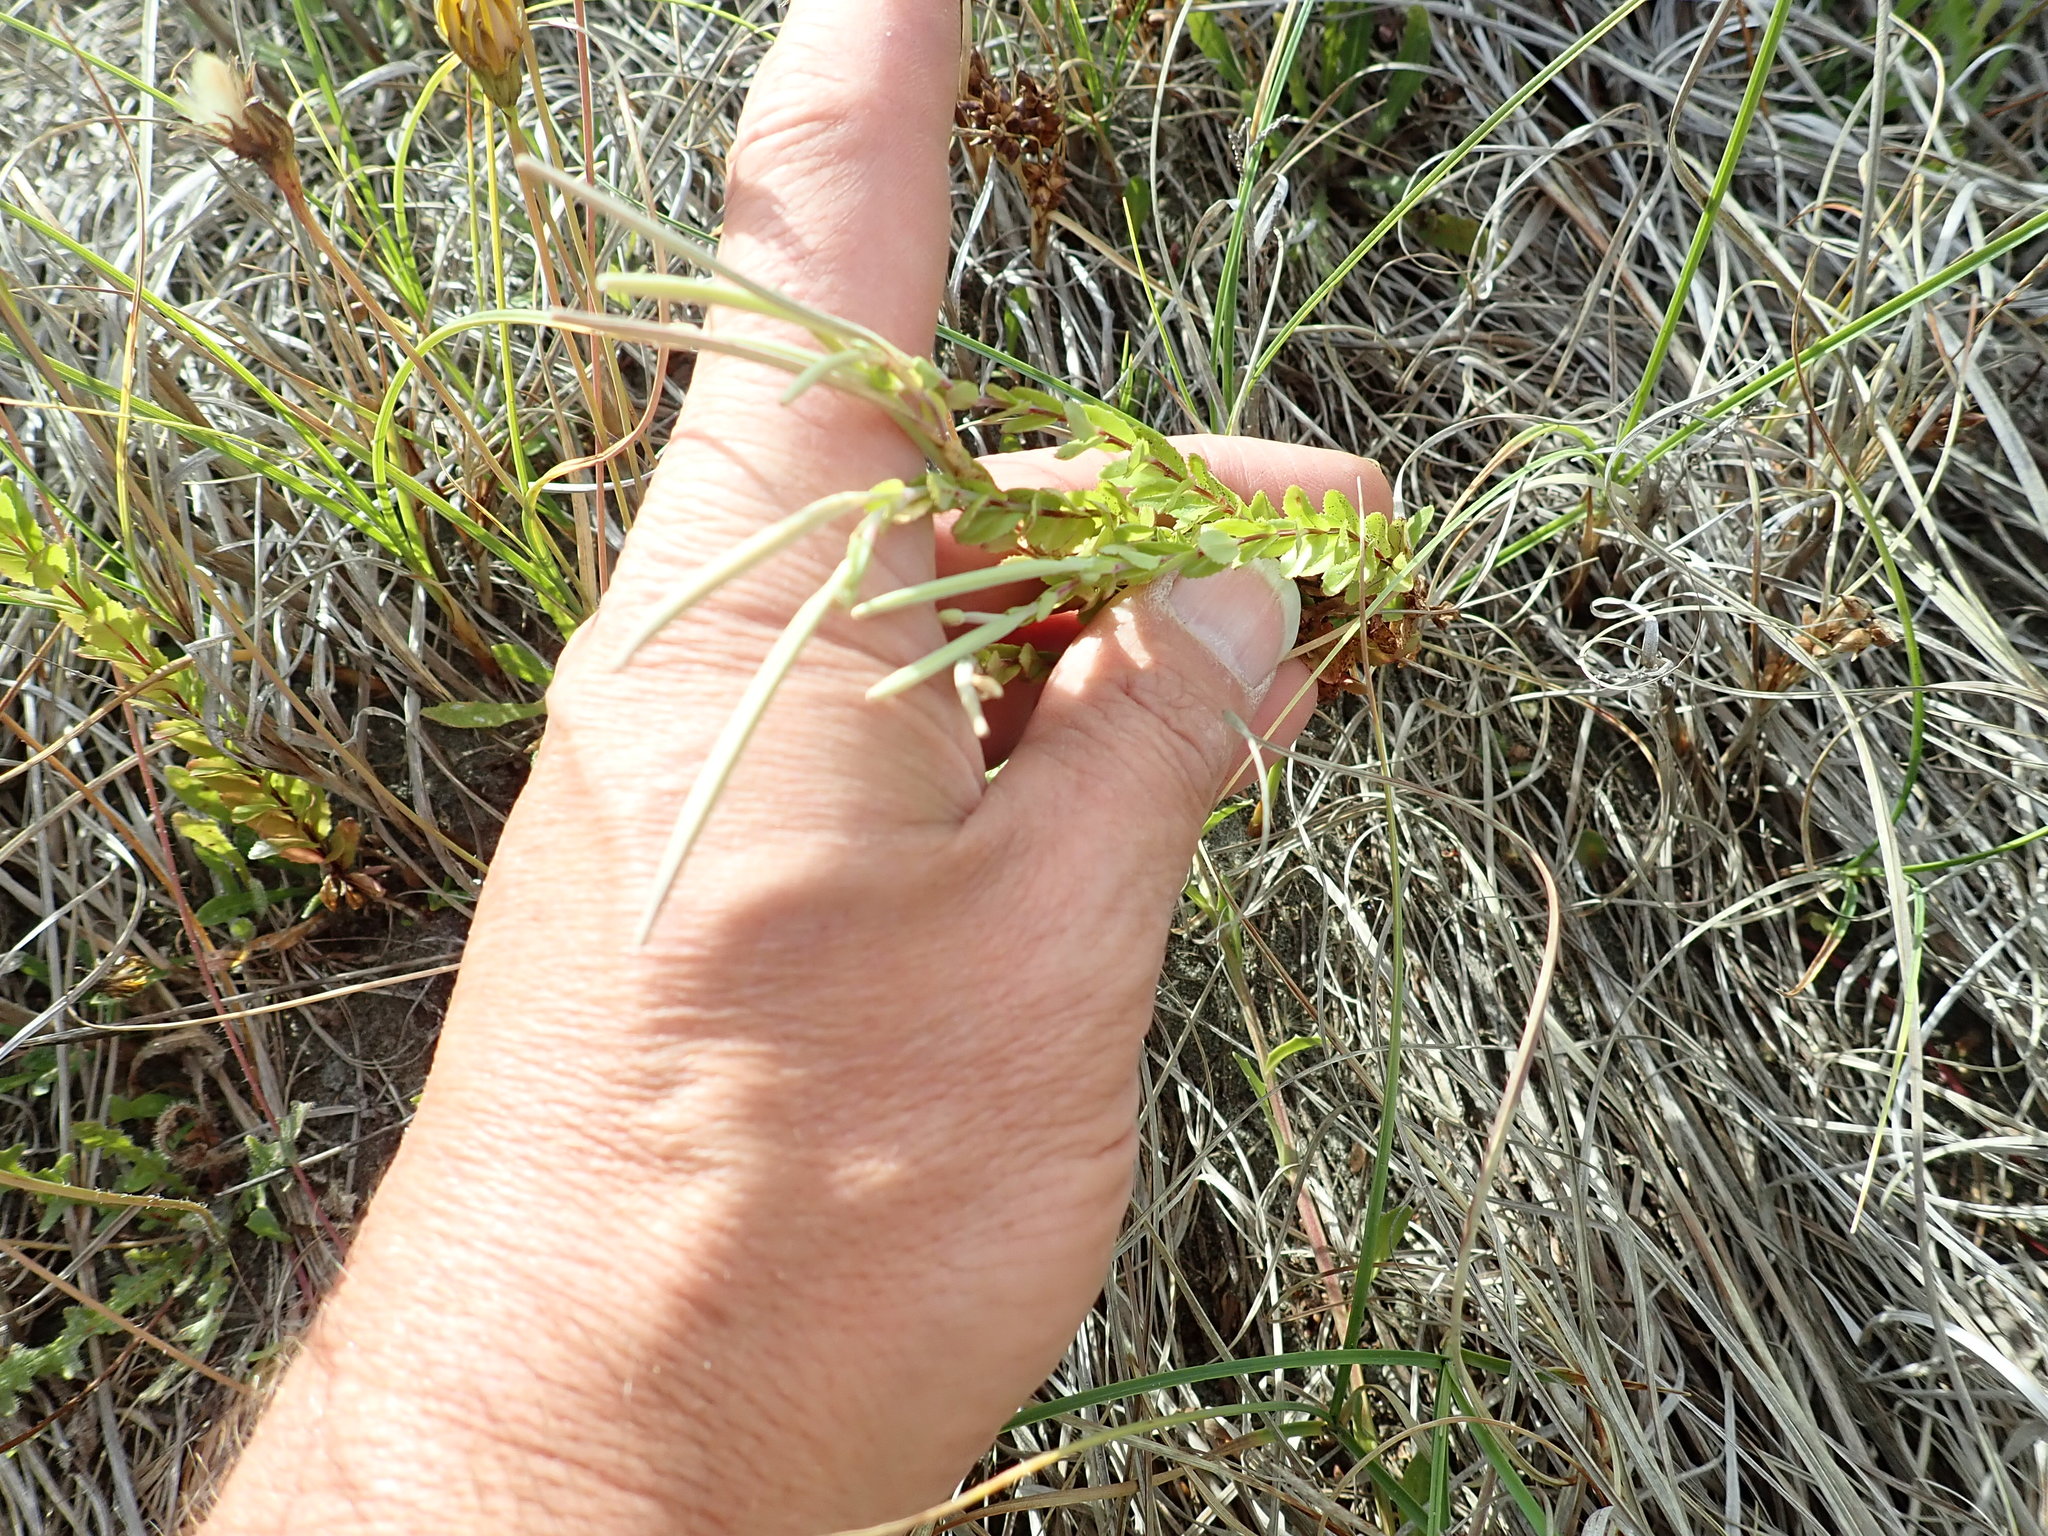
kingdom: Plantae
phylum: Tracheophyta
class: Magnoliopsida
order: Myrtales
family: Onagraceae
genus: Epilobium
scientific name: Epilobium billardiereanum
